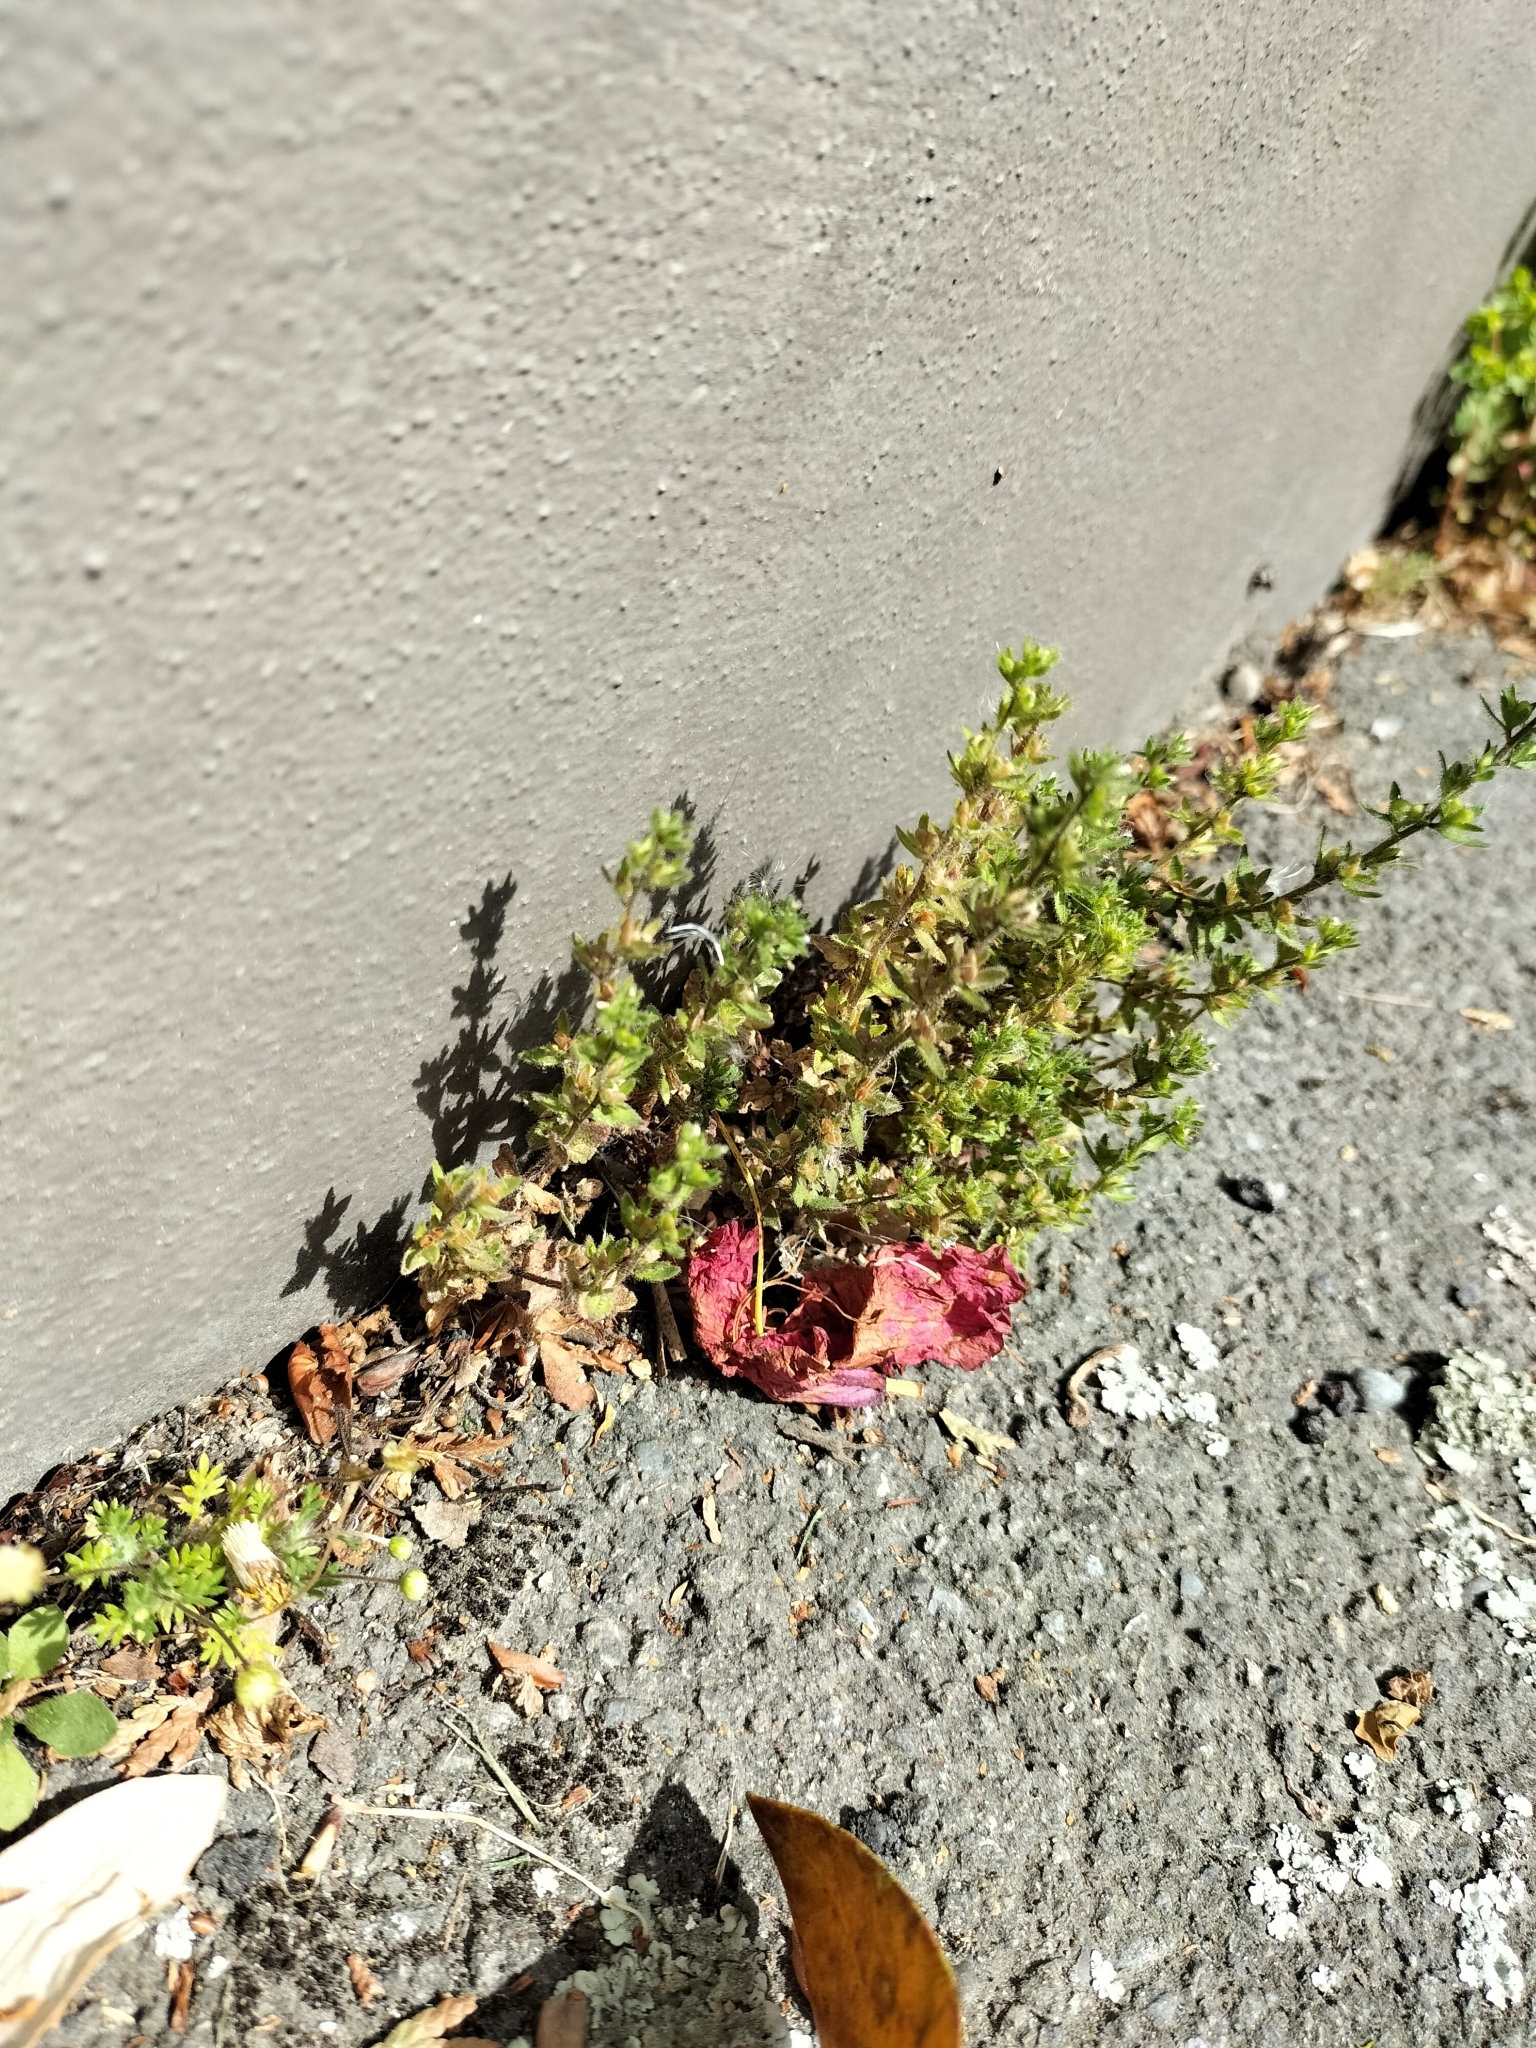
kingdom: Plantae
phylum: Tracheophyta
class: Magnoliopsida
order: Lamiales
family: Plantaginaceae
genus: Veronica
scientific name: Veronica arvensis
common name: Corn speedwell
